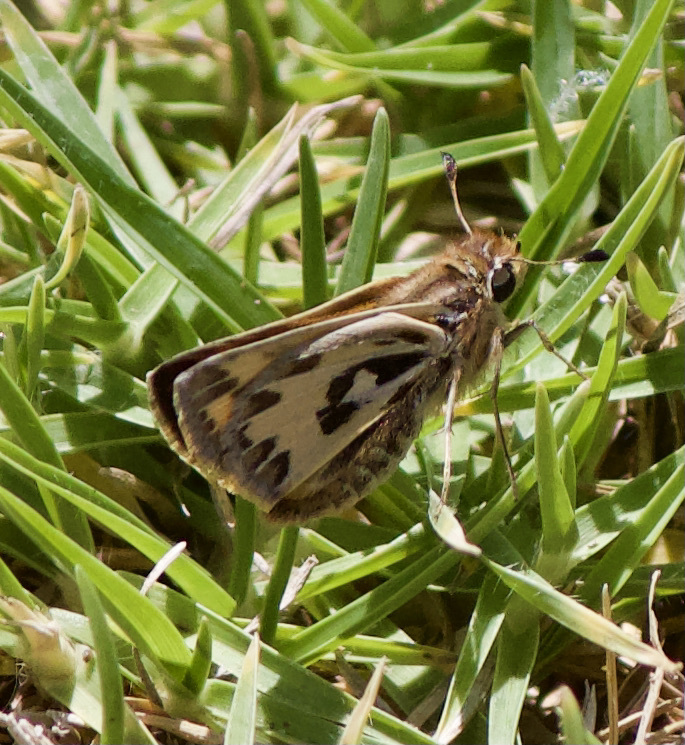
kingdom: Animalia
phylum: Arthropoda
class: Insecta
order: Lepidoptera
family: Hesperiidae
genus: Hylephila
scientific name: Hylephila fasciolata
